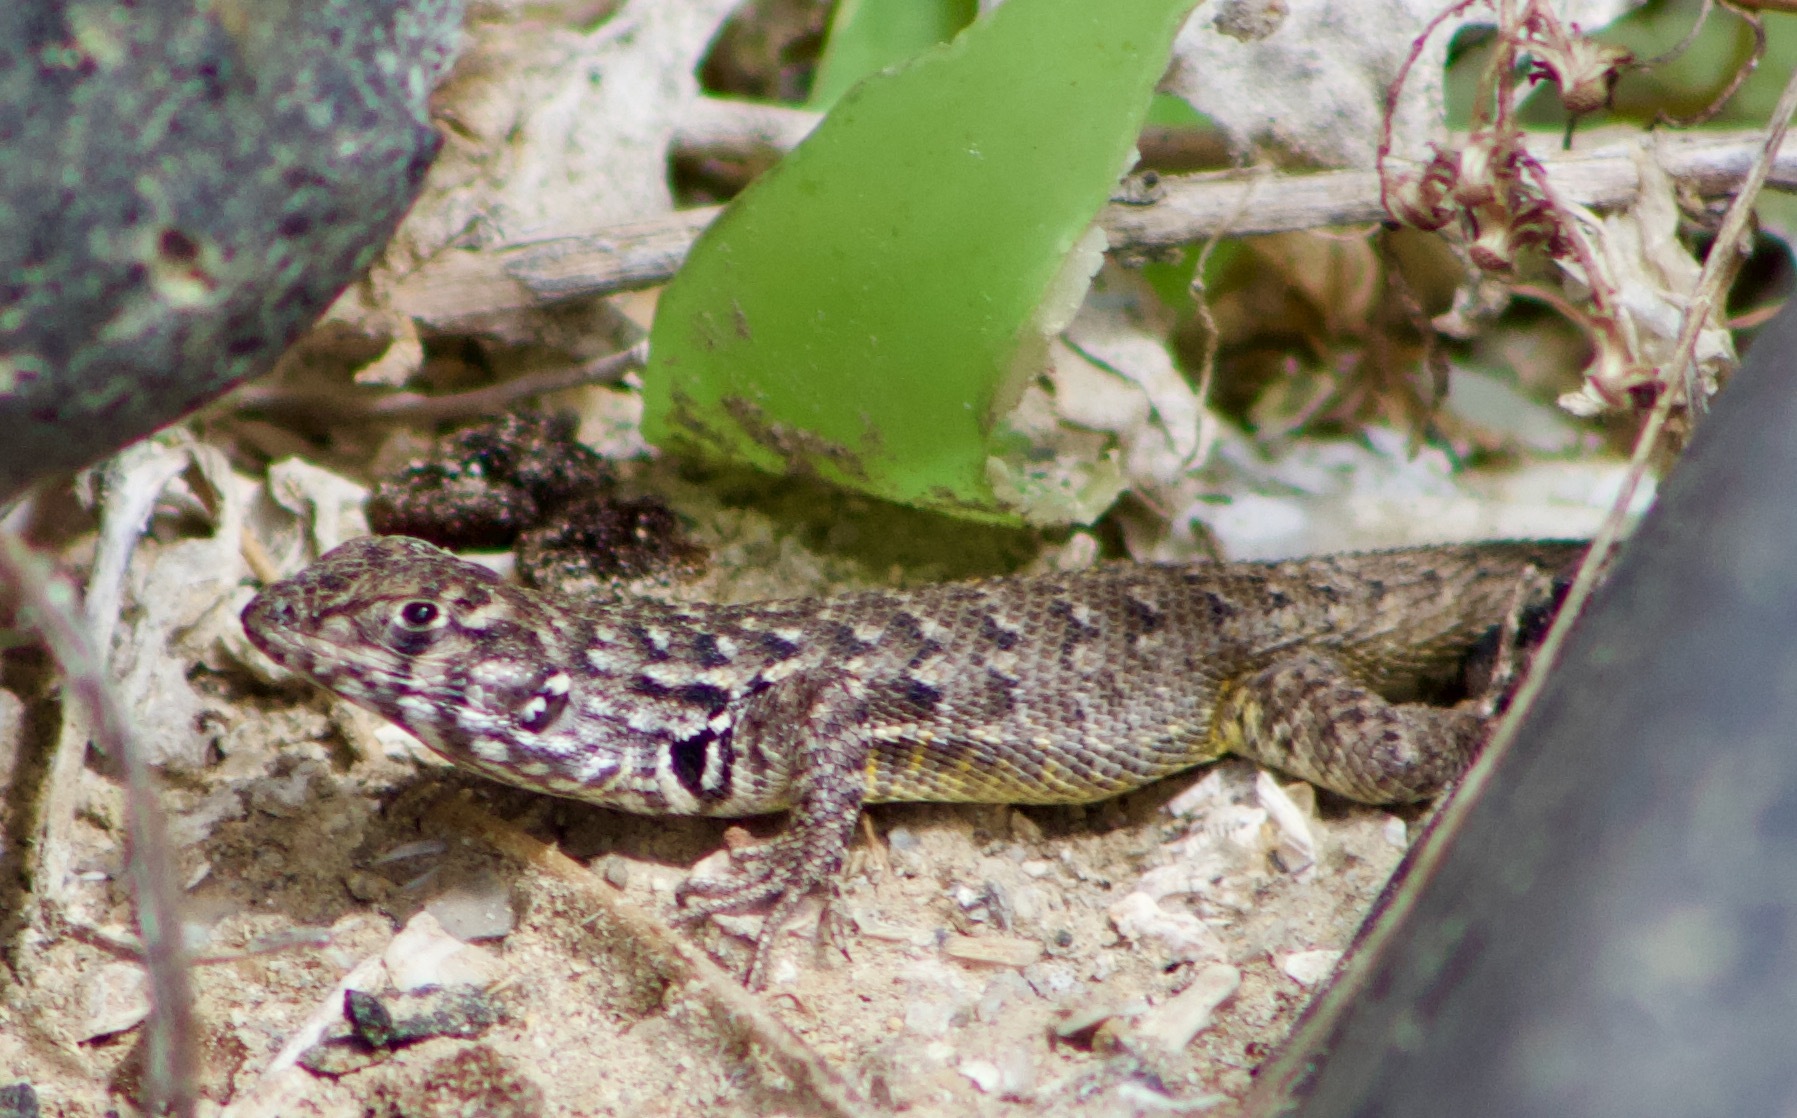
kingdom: Animalia
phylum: Chordata
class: Squamata
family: Liolaemidae
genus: Liolaemus
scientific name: Liolaemus zapallarensis
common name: Zapallaren tree iguana
